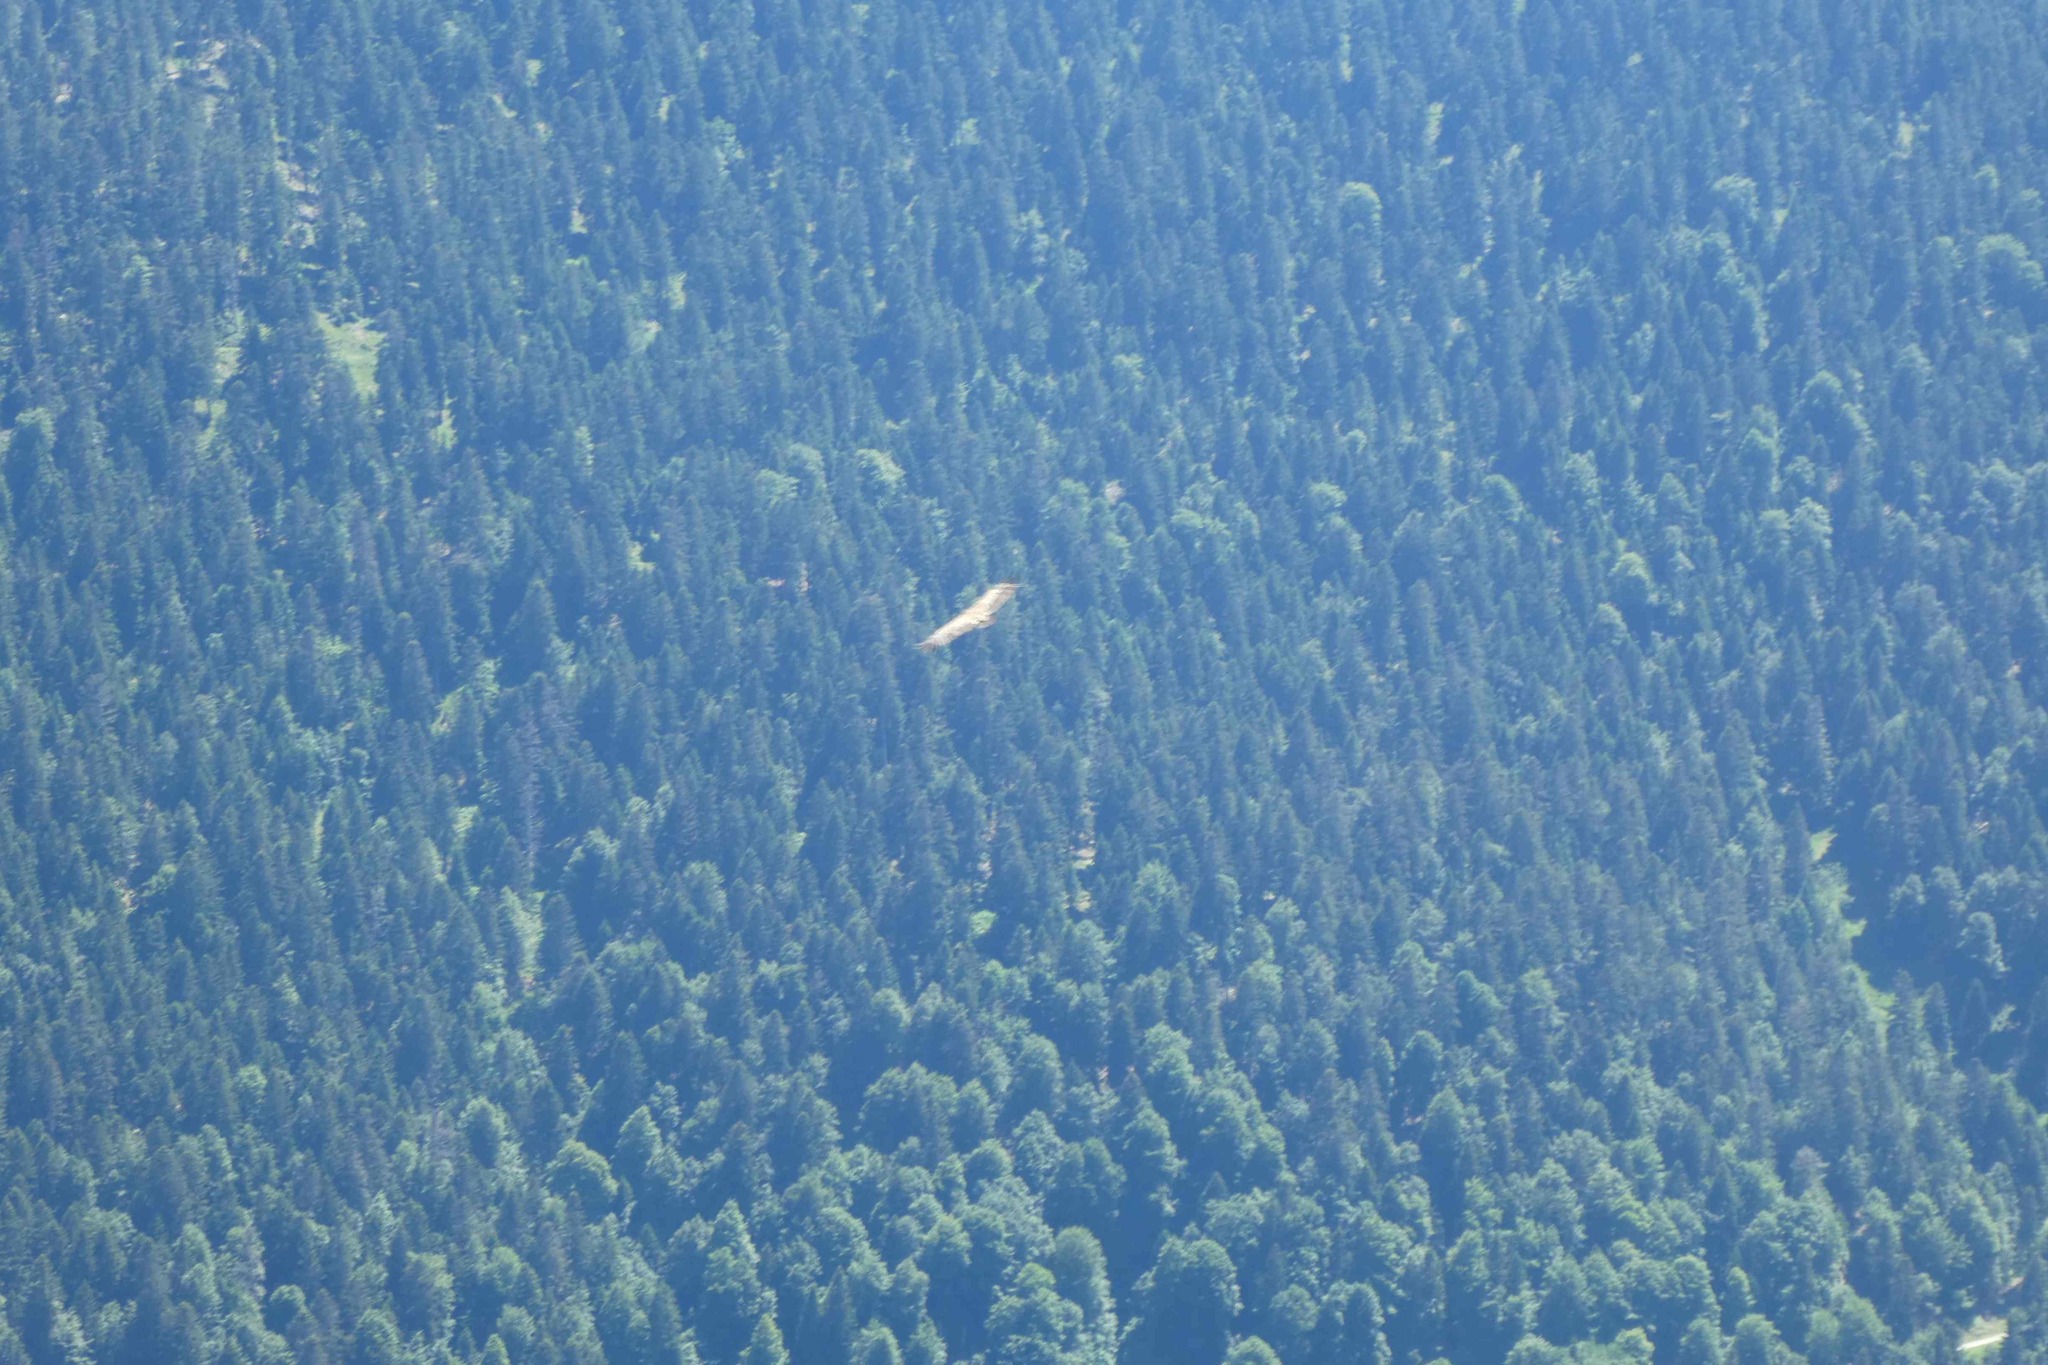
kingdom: Animalia
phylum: Chordata
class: Aves
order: Accipitriformes
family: Accipitridae
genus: Gyps
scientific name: Gyps fulvus
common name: Griffon vulture
